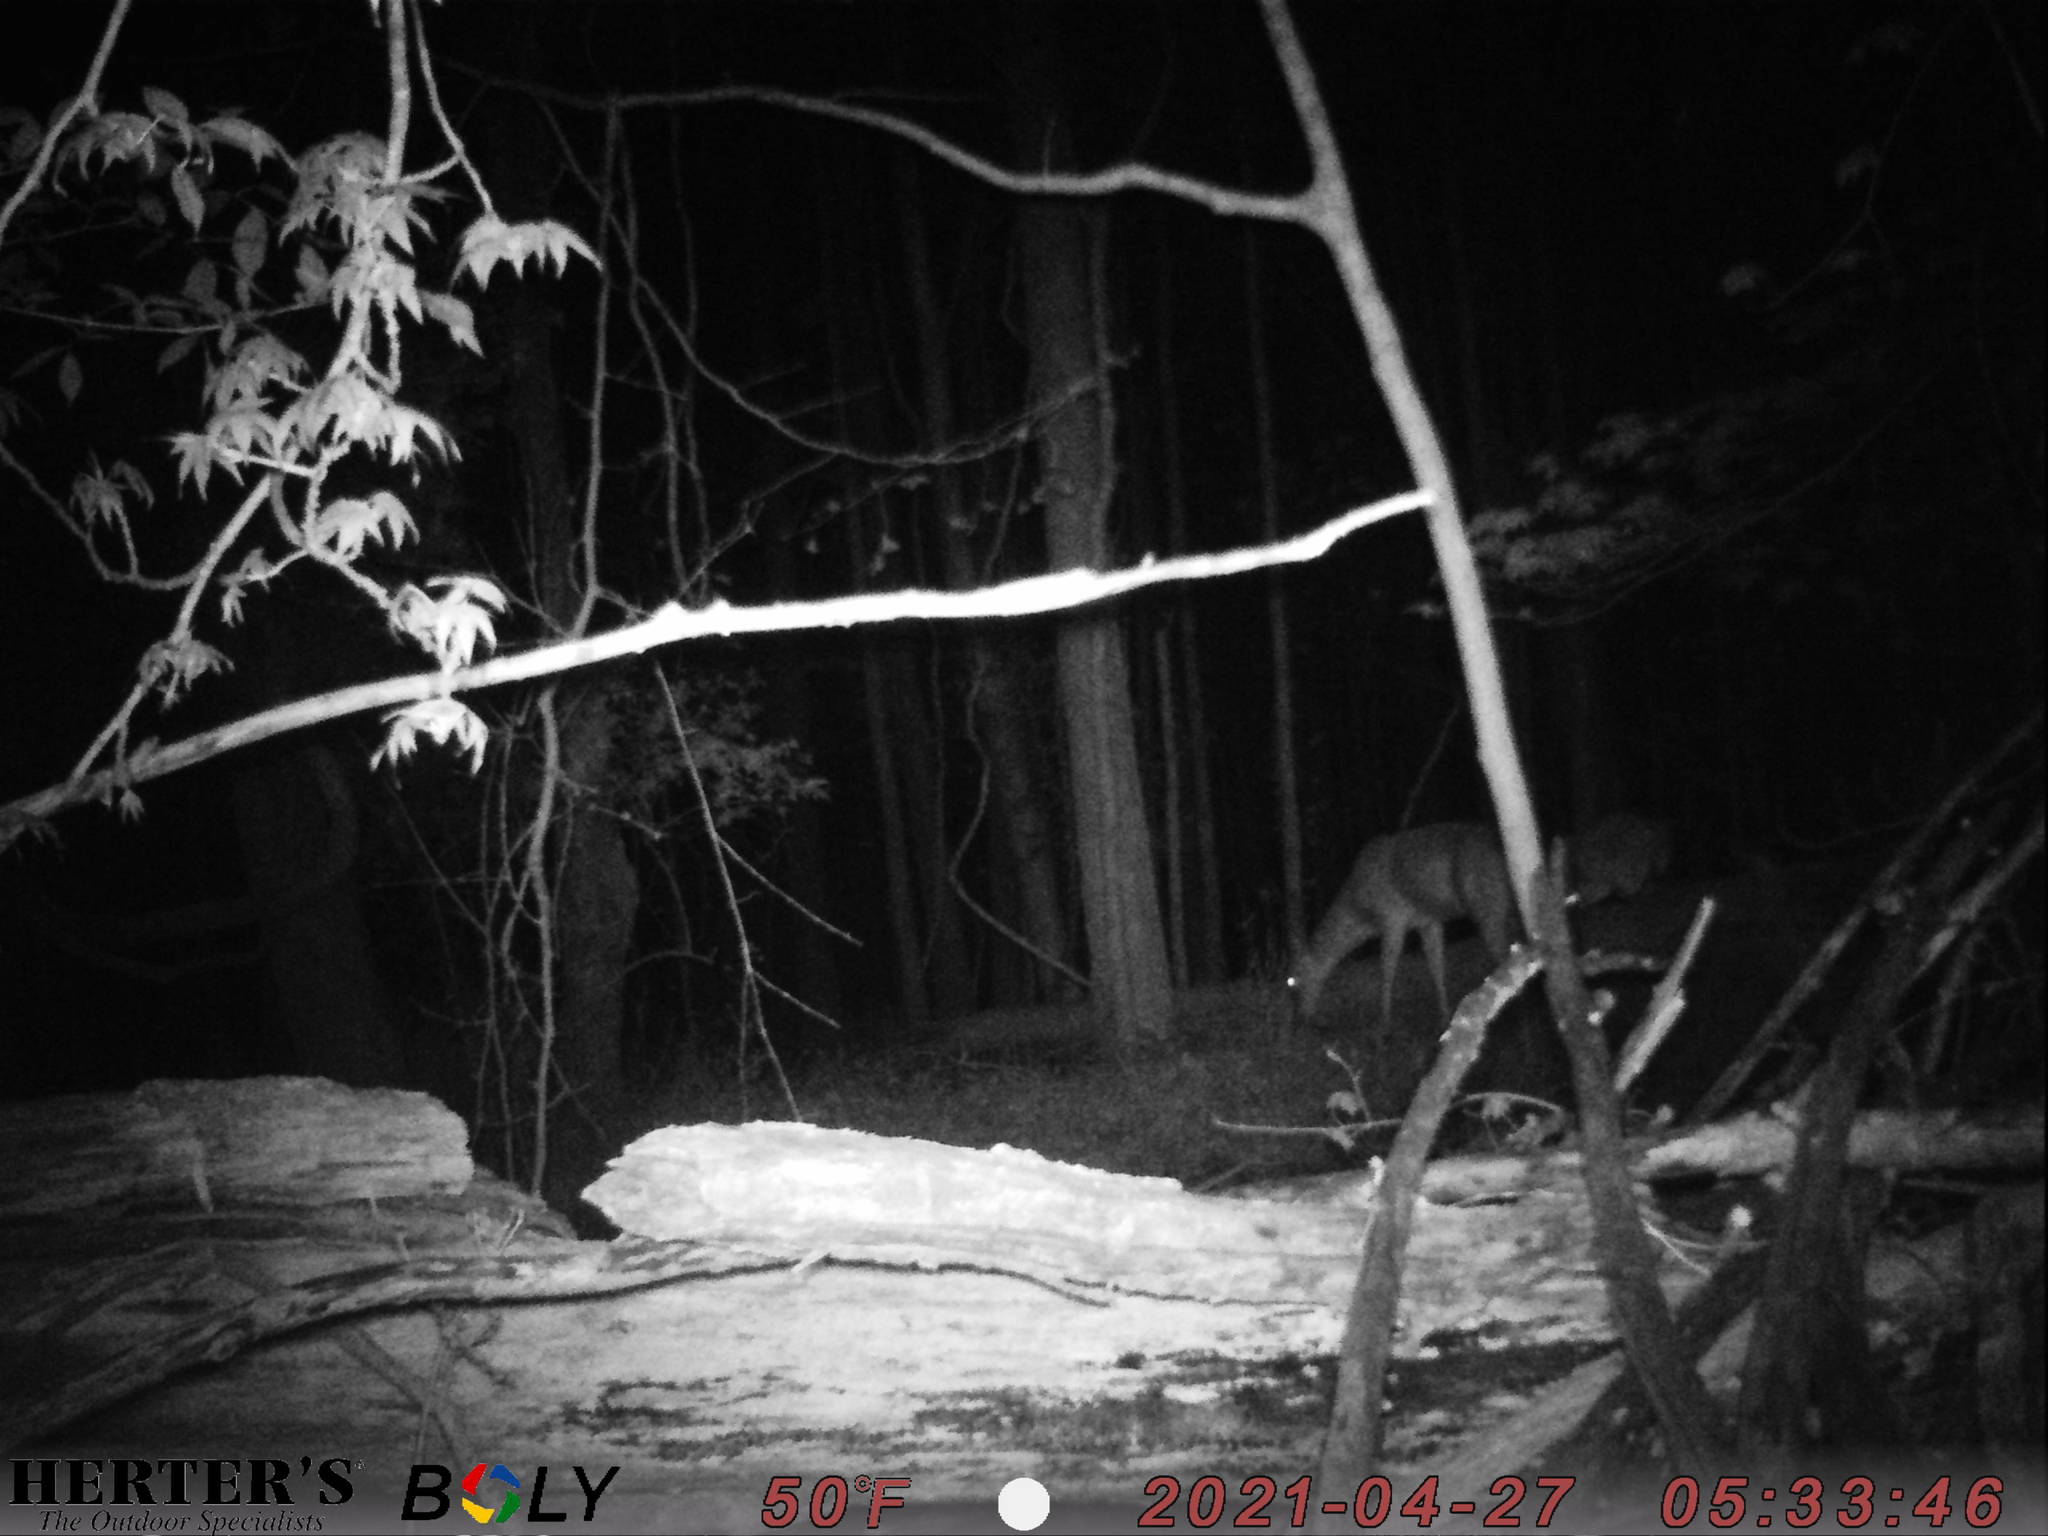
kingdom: Animalia
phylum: Chordata
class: Mammalia
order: Artiodactyla
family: Cervidae
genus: Odocoileus
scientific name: Odocoileus virginianus
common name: White-tailed deer
